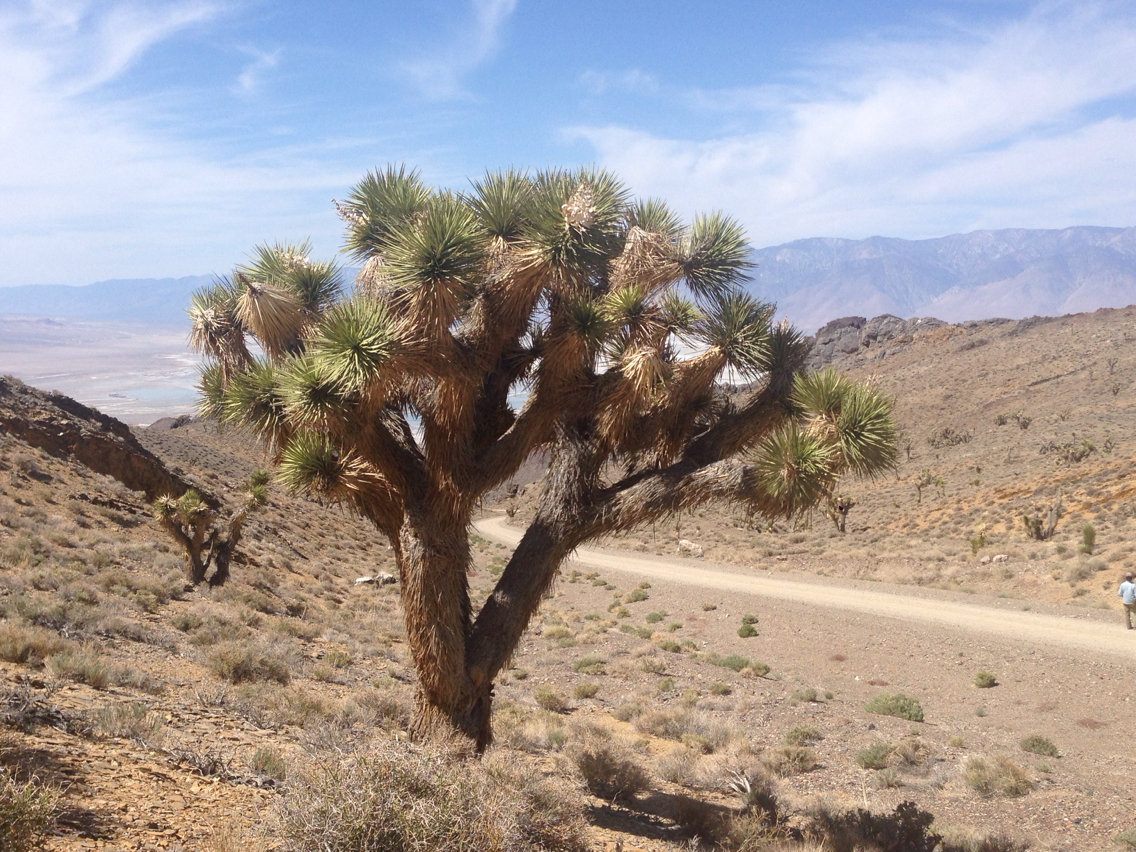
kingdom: Plantae
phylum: Tracheophyta
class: Liliopsida
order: Asparagales
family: Asparagaceae
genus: Yucca
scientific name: Yucca brevifolia
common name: Joshua tree
